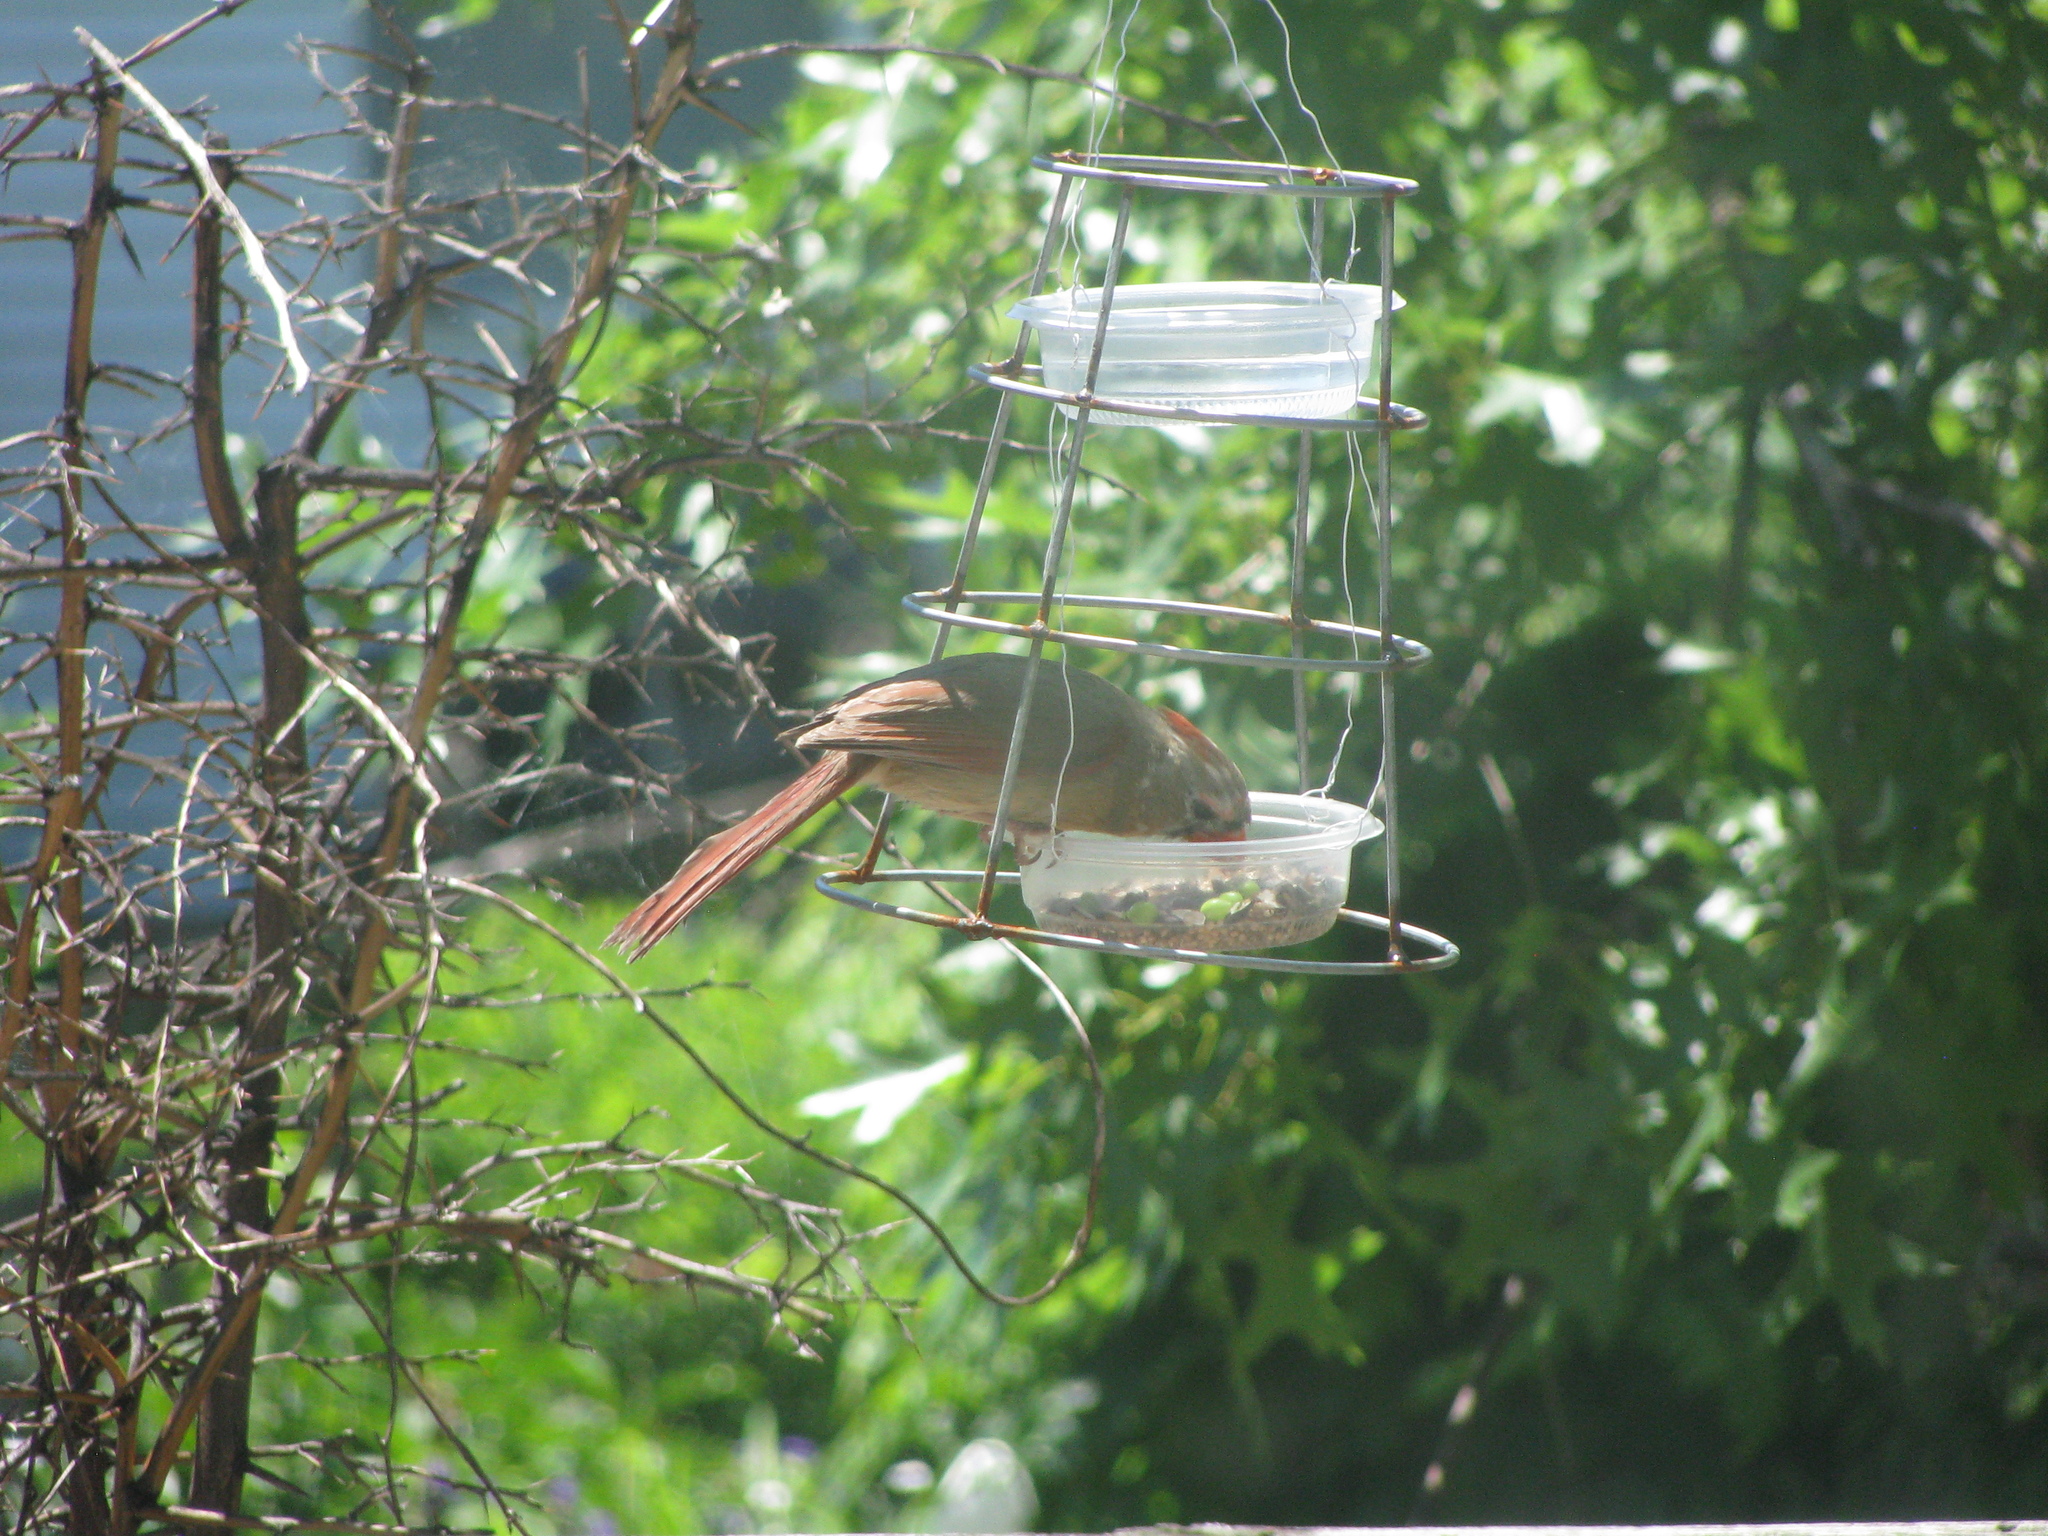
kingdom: Animalia
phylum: Chordata
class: Aves
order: Passeriformes
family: Cardinalidae
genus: Cardinalis
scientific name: Cardinalis cardinalis
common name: Northern cardinal
